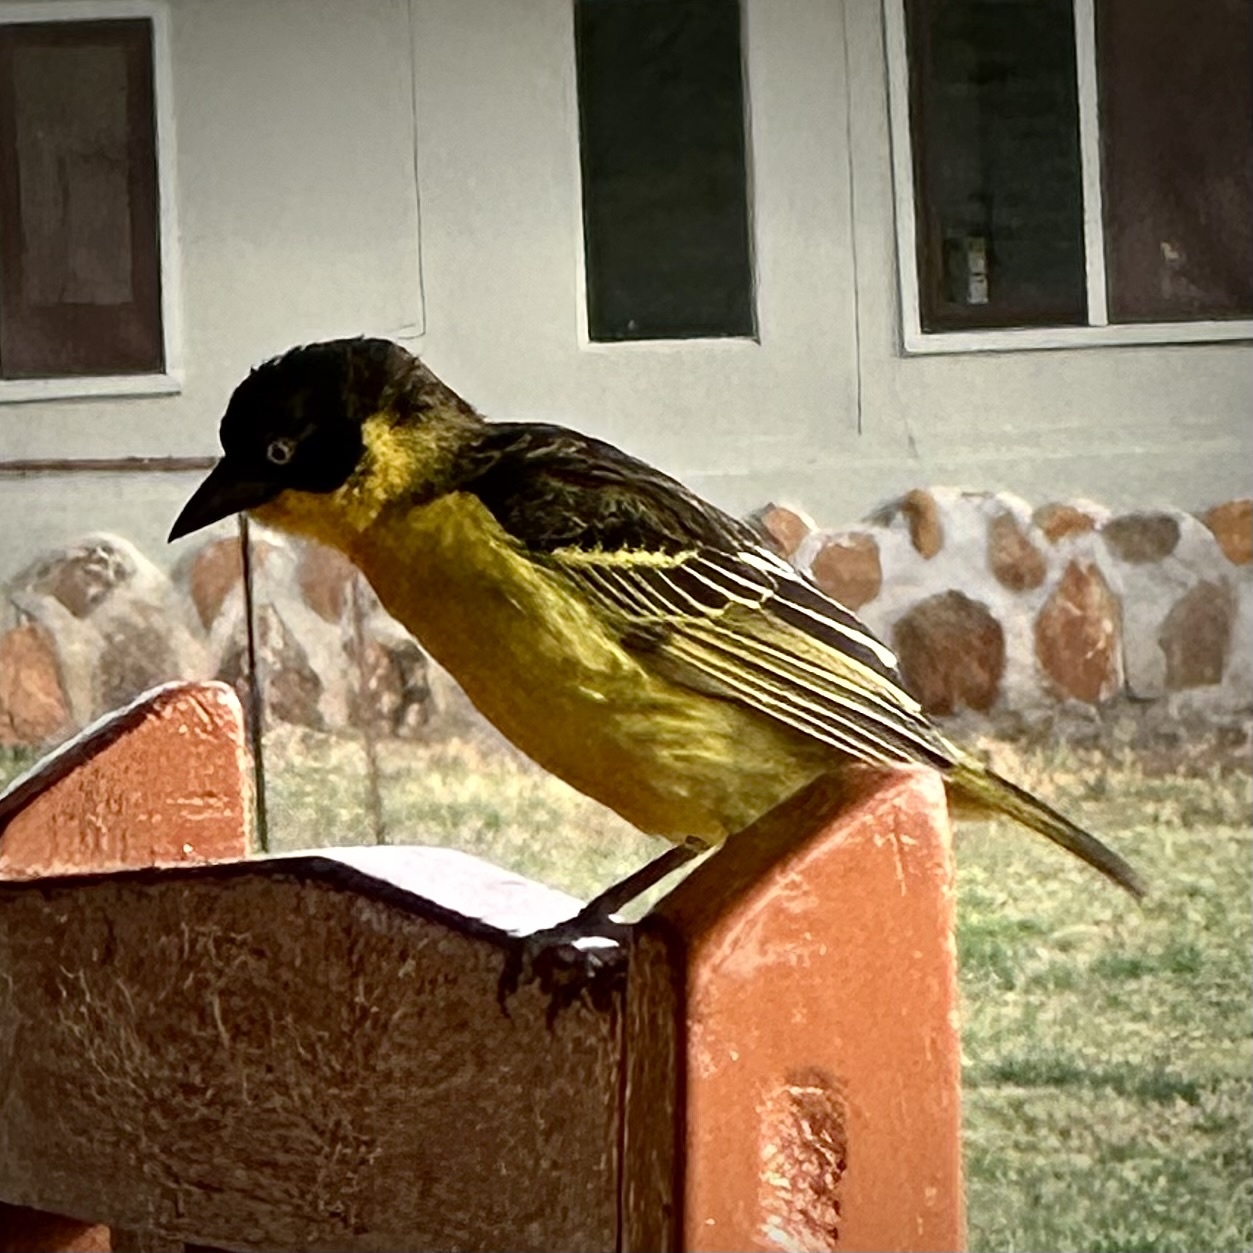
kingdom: Animalia
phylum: Chordata
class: Aves
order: Passeriformes
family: Ploceidae
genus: Ploceus
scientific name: Ploceus baglafecht
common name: Baglafecht weaver
